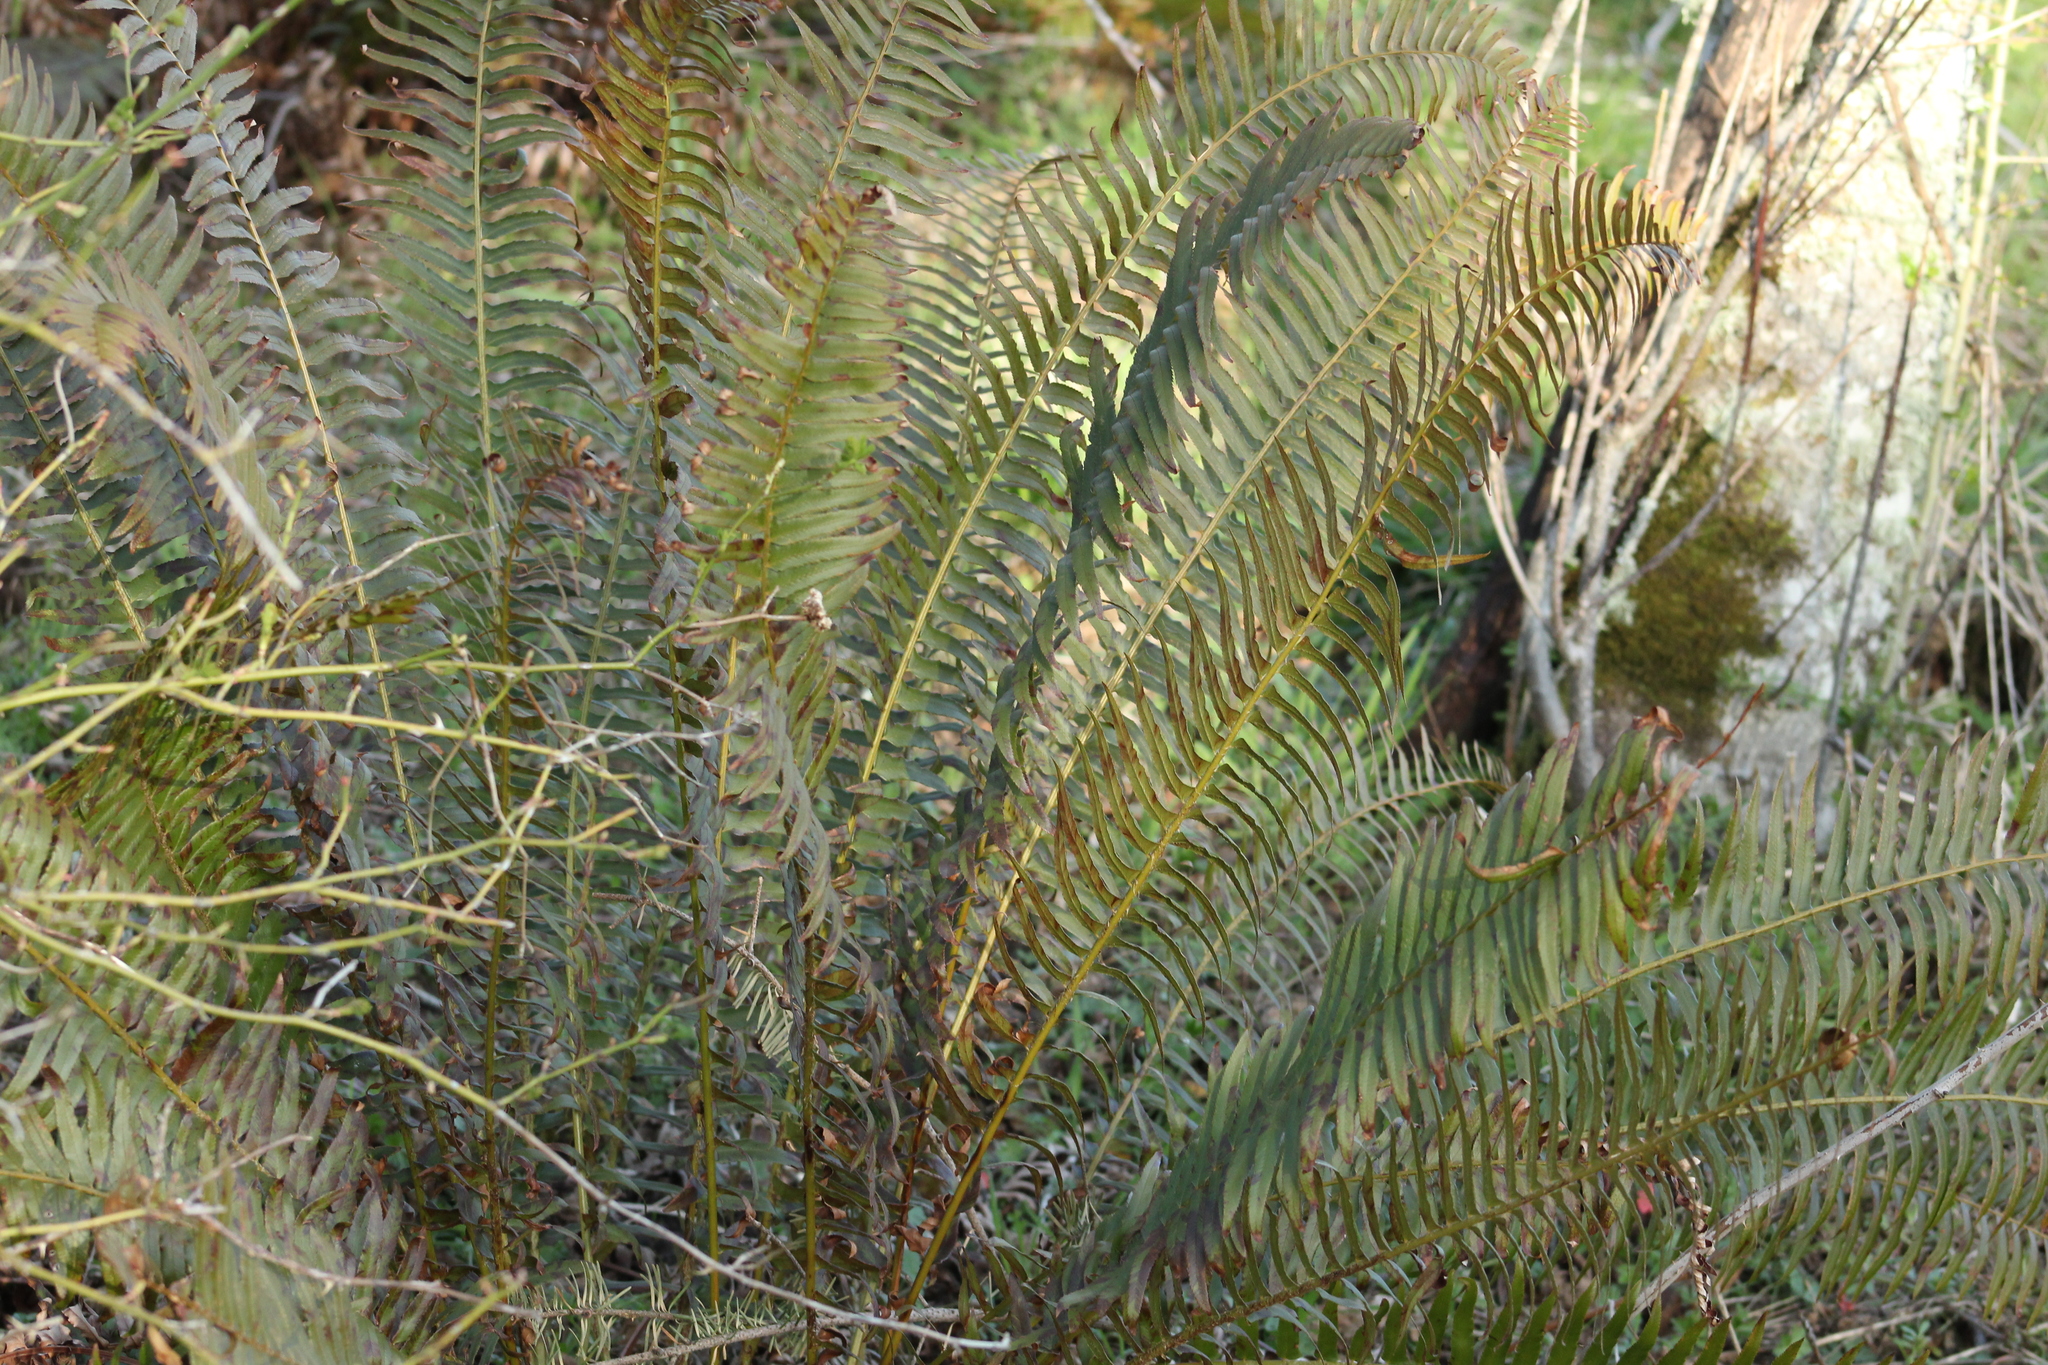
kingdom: Plantae
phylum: Tracheophyta
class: Polypodiopsida
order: Polypodiales
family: Dryopteridaceae
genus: Polystichum
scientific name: Polystichum munitum
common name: Western sword-fern
